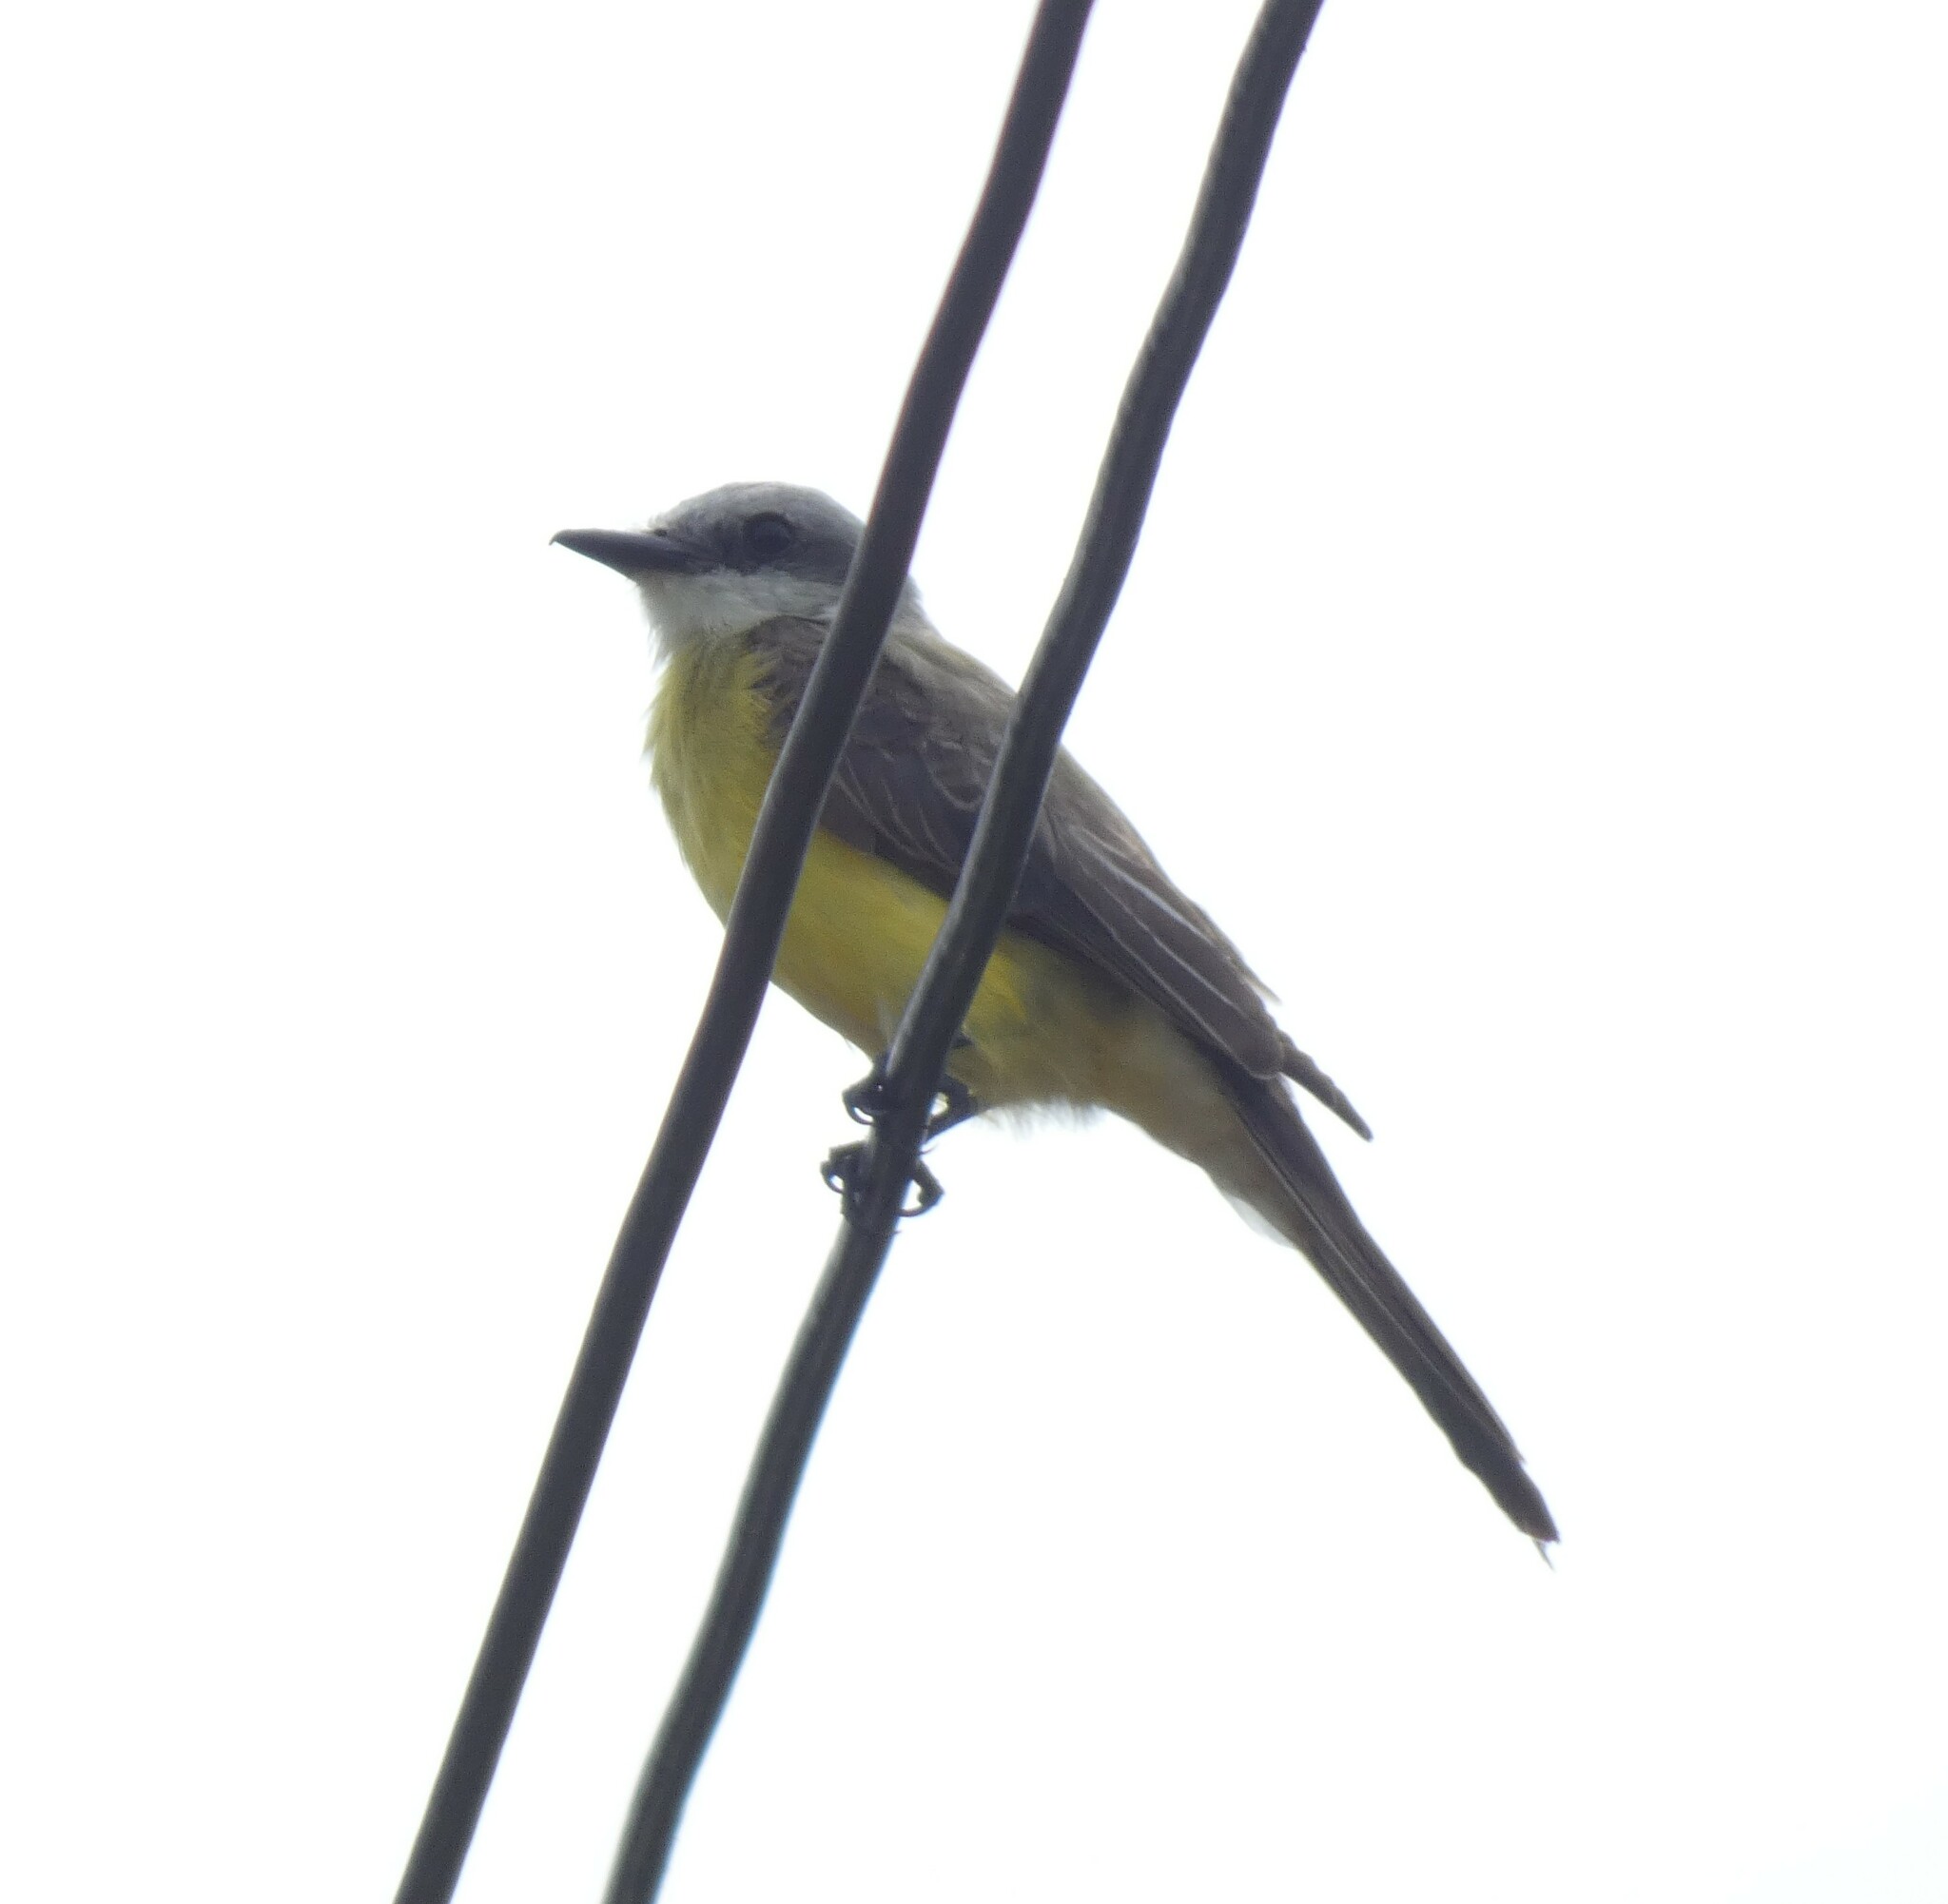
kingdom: Animalia
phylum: Chordata
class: Aves
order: Passeriformes
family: Tyrannidae
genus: Tyrannus
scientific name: Tyrannus albogularis
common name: White-throated kingbird
